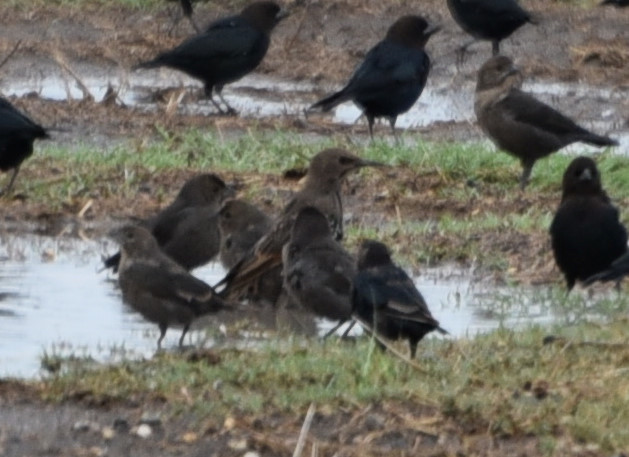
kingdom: Animalia
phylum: Chordata
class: Aves
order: Passeriformes
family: Sturnidae
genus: Sturnus
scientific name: Sturnus vulgaris
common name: Common starling
